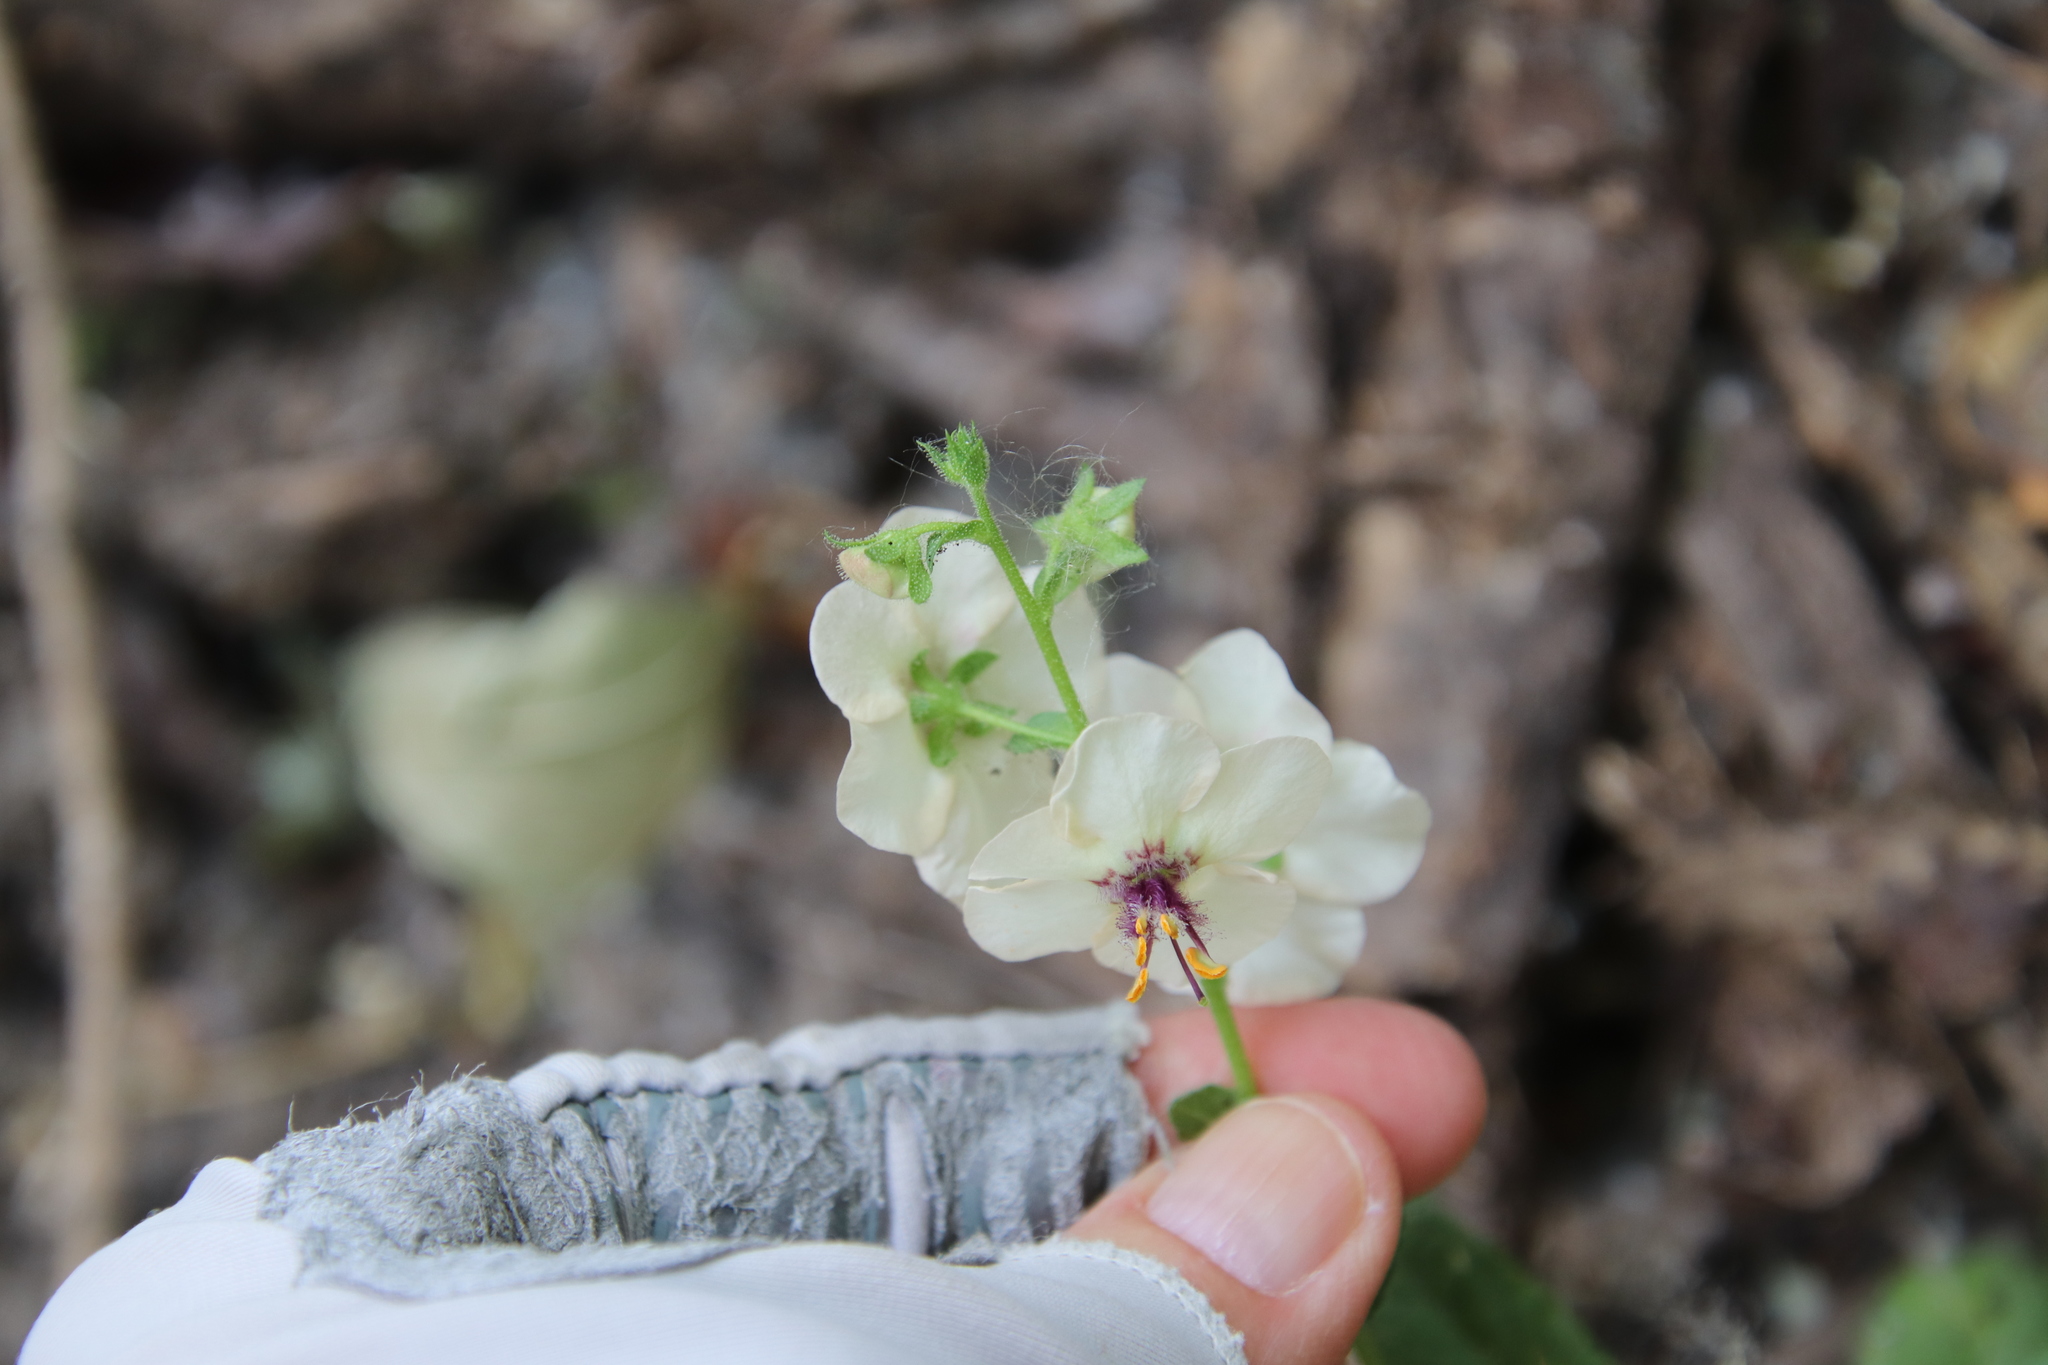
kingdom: Plantae
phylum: Tracheophyta
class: Magnoliopsida
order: Lamiales
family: Scrophulariaceae
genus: Verbascum
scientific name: Verbascum blattaria
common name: Moth mullein
